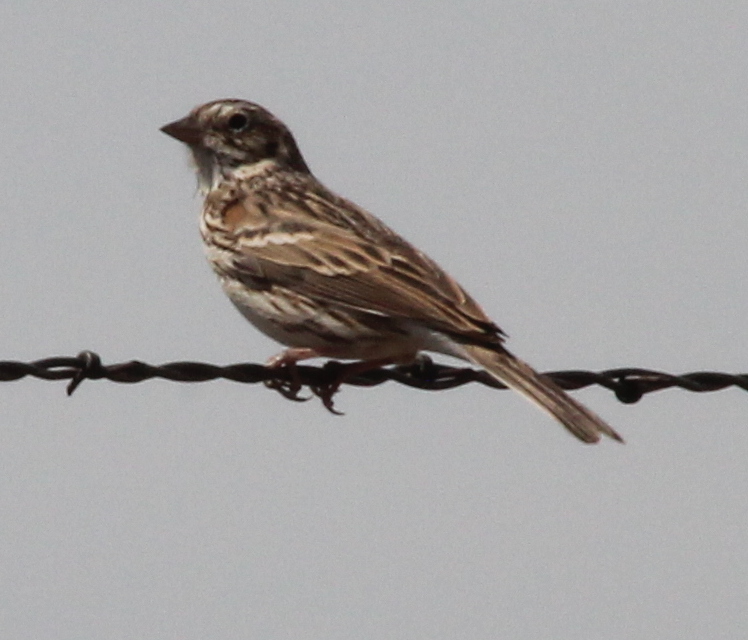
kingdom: Animalia
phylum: Chordata
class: Aves
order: Passeriformes
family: Passerellidae
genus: Pooecetes
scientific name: Pooecetes gramineus
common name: Vesper sparrow
